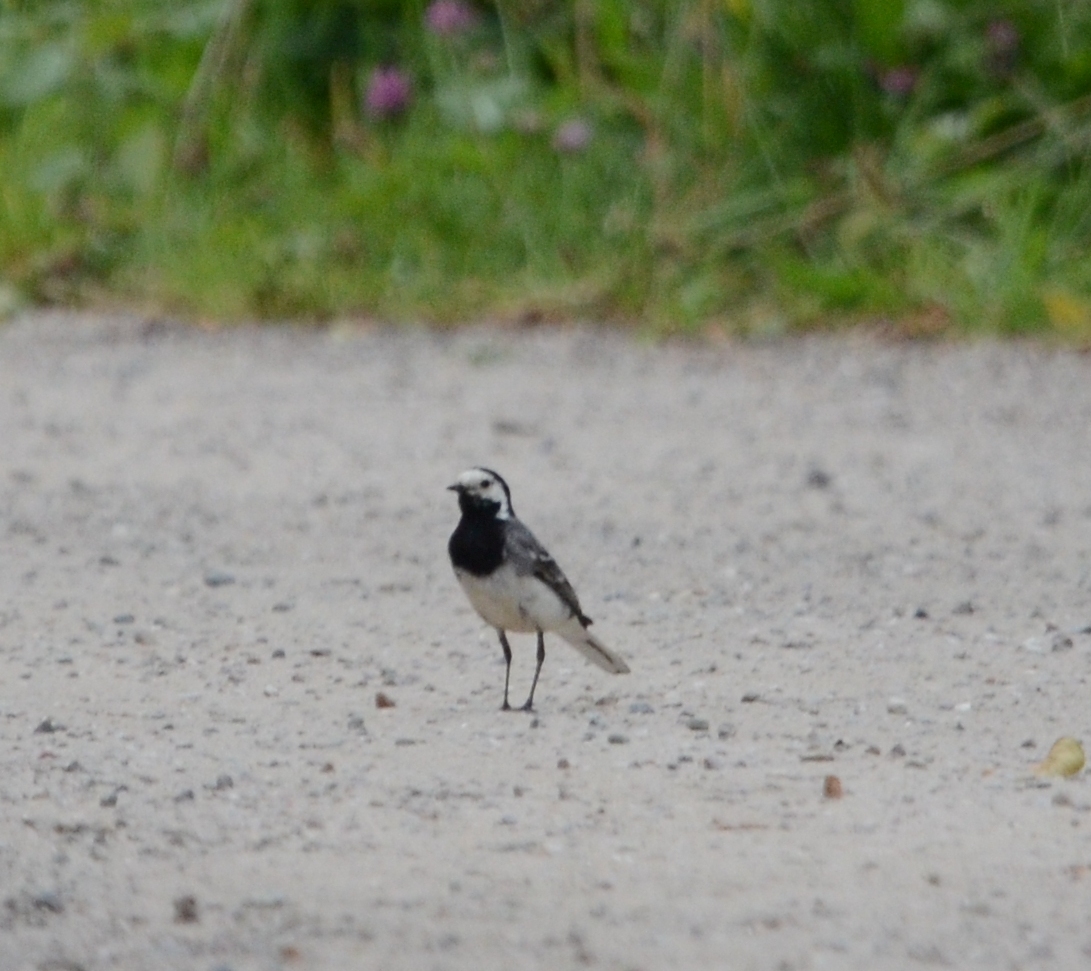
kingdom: Animalia
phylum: Chordata
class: Aves
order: Passeriformes
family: Motacillidae
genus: Motacilla
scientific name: Motacilla alba
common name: White wagtail
